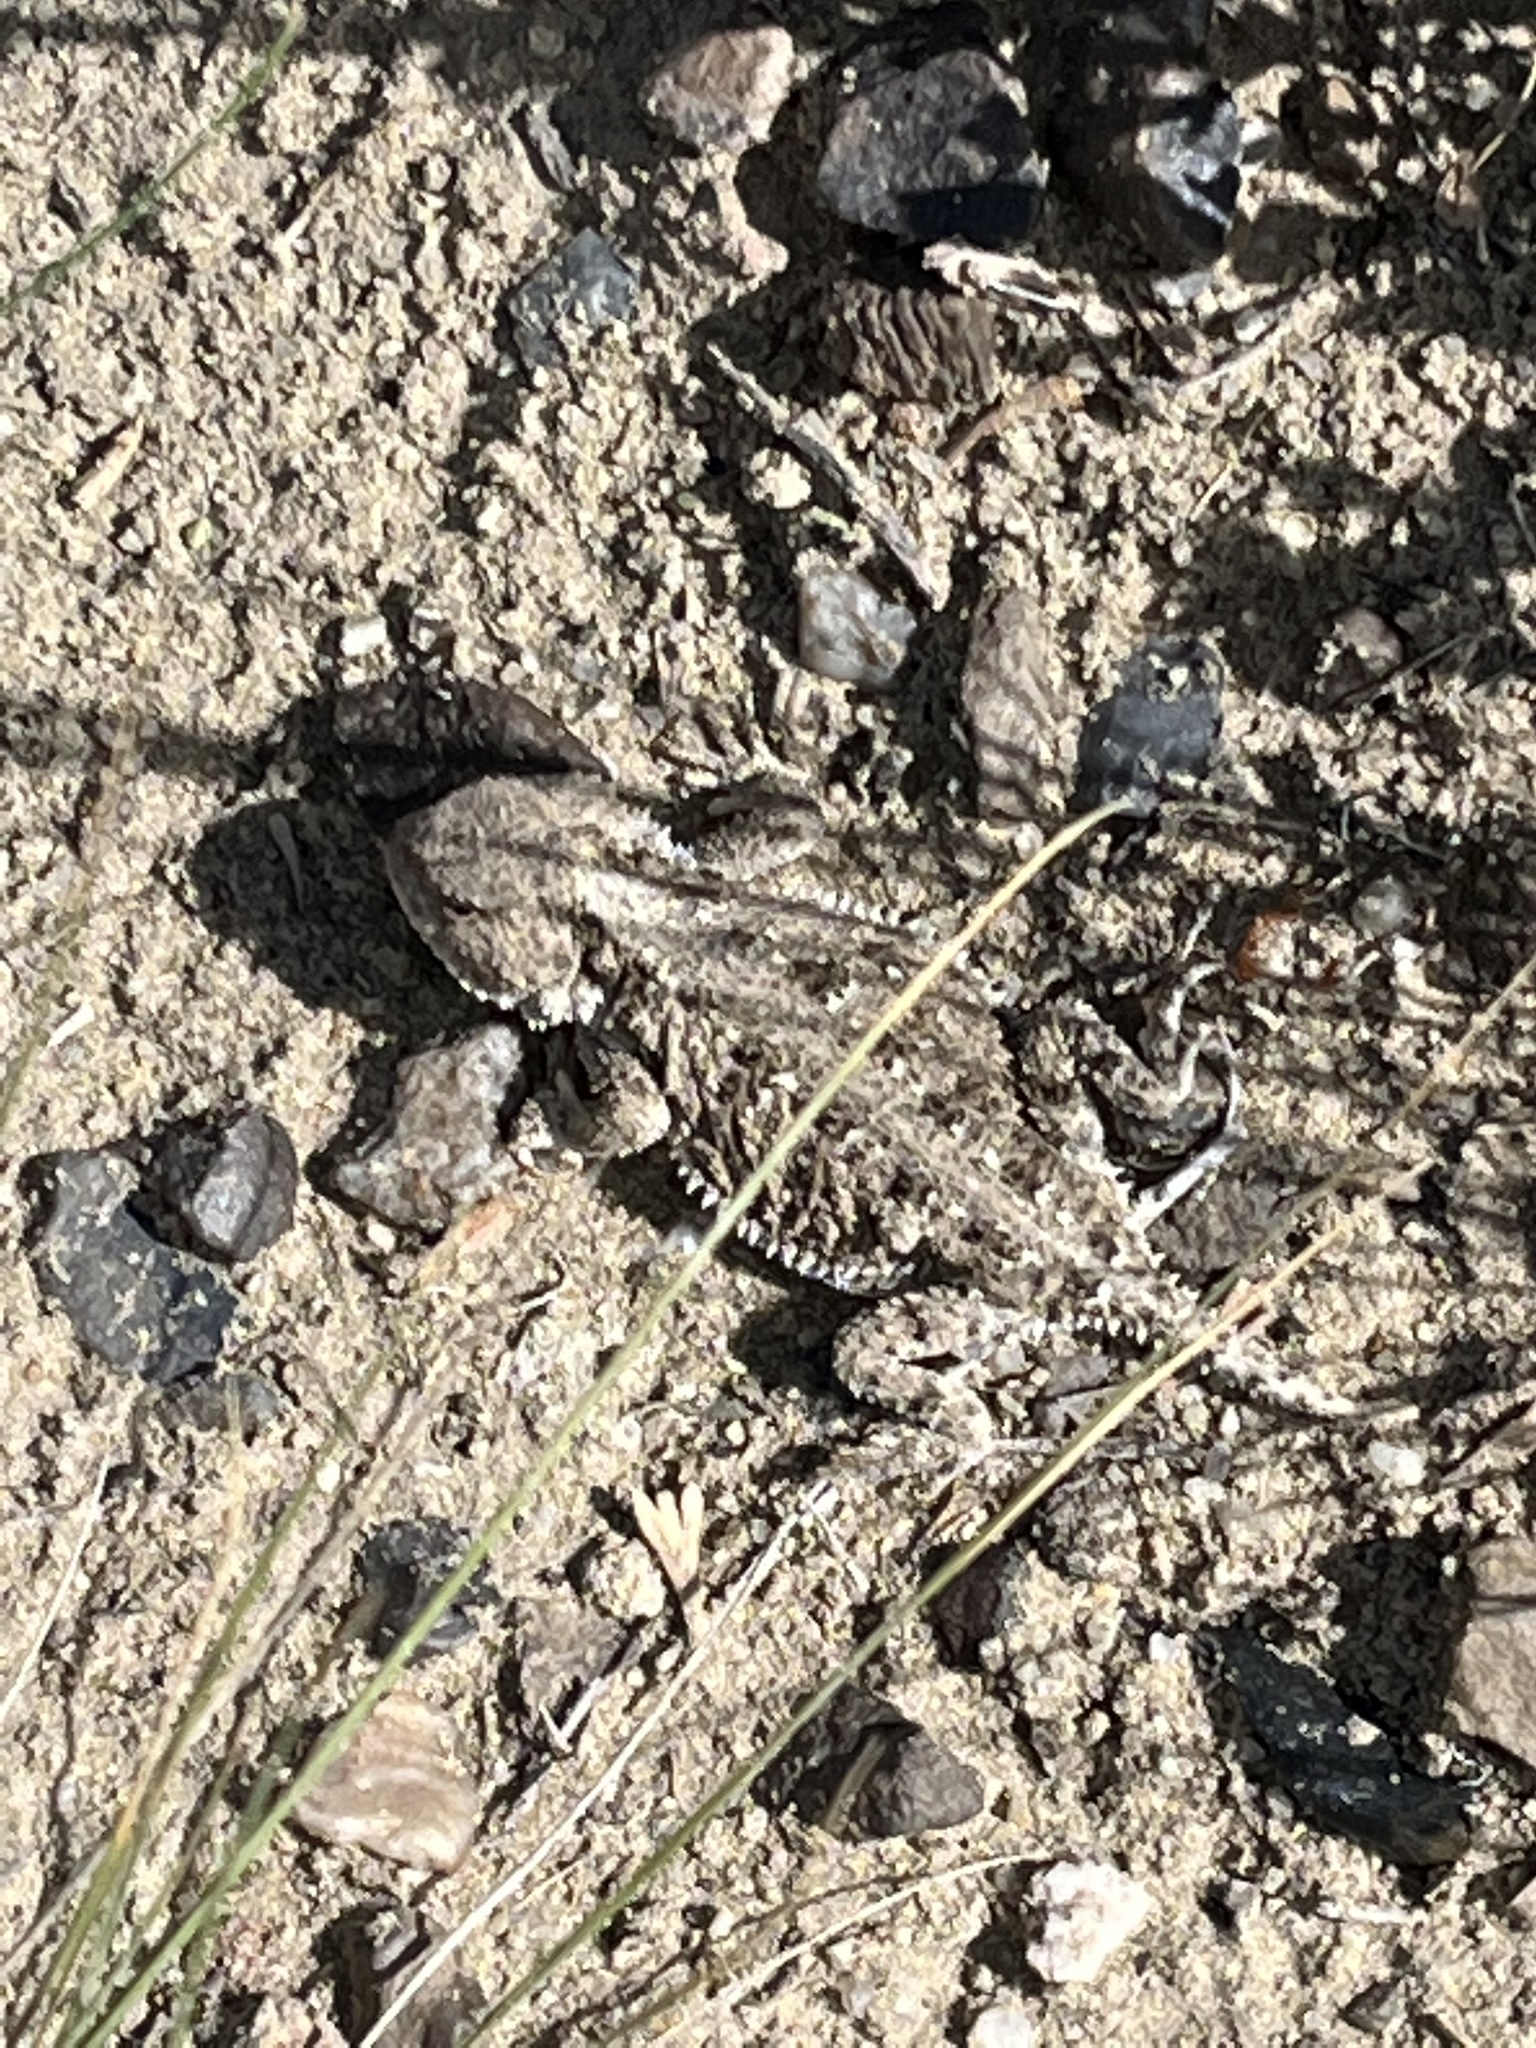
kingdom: Animalia
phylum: Chordata
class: Squamata
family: Phrynosomatidae
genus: Phrynosoma
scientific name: Phrynosoma hernandesi
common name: Greater short-horned lizard
